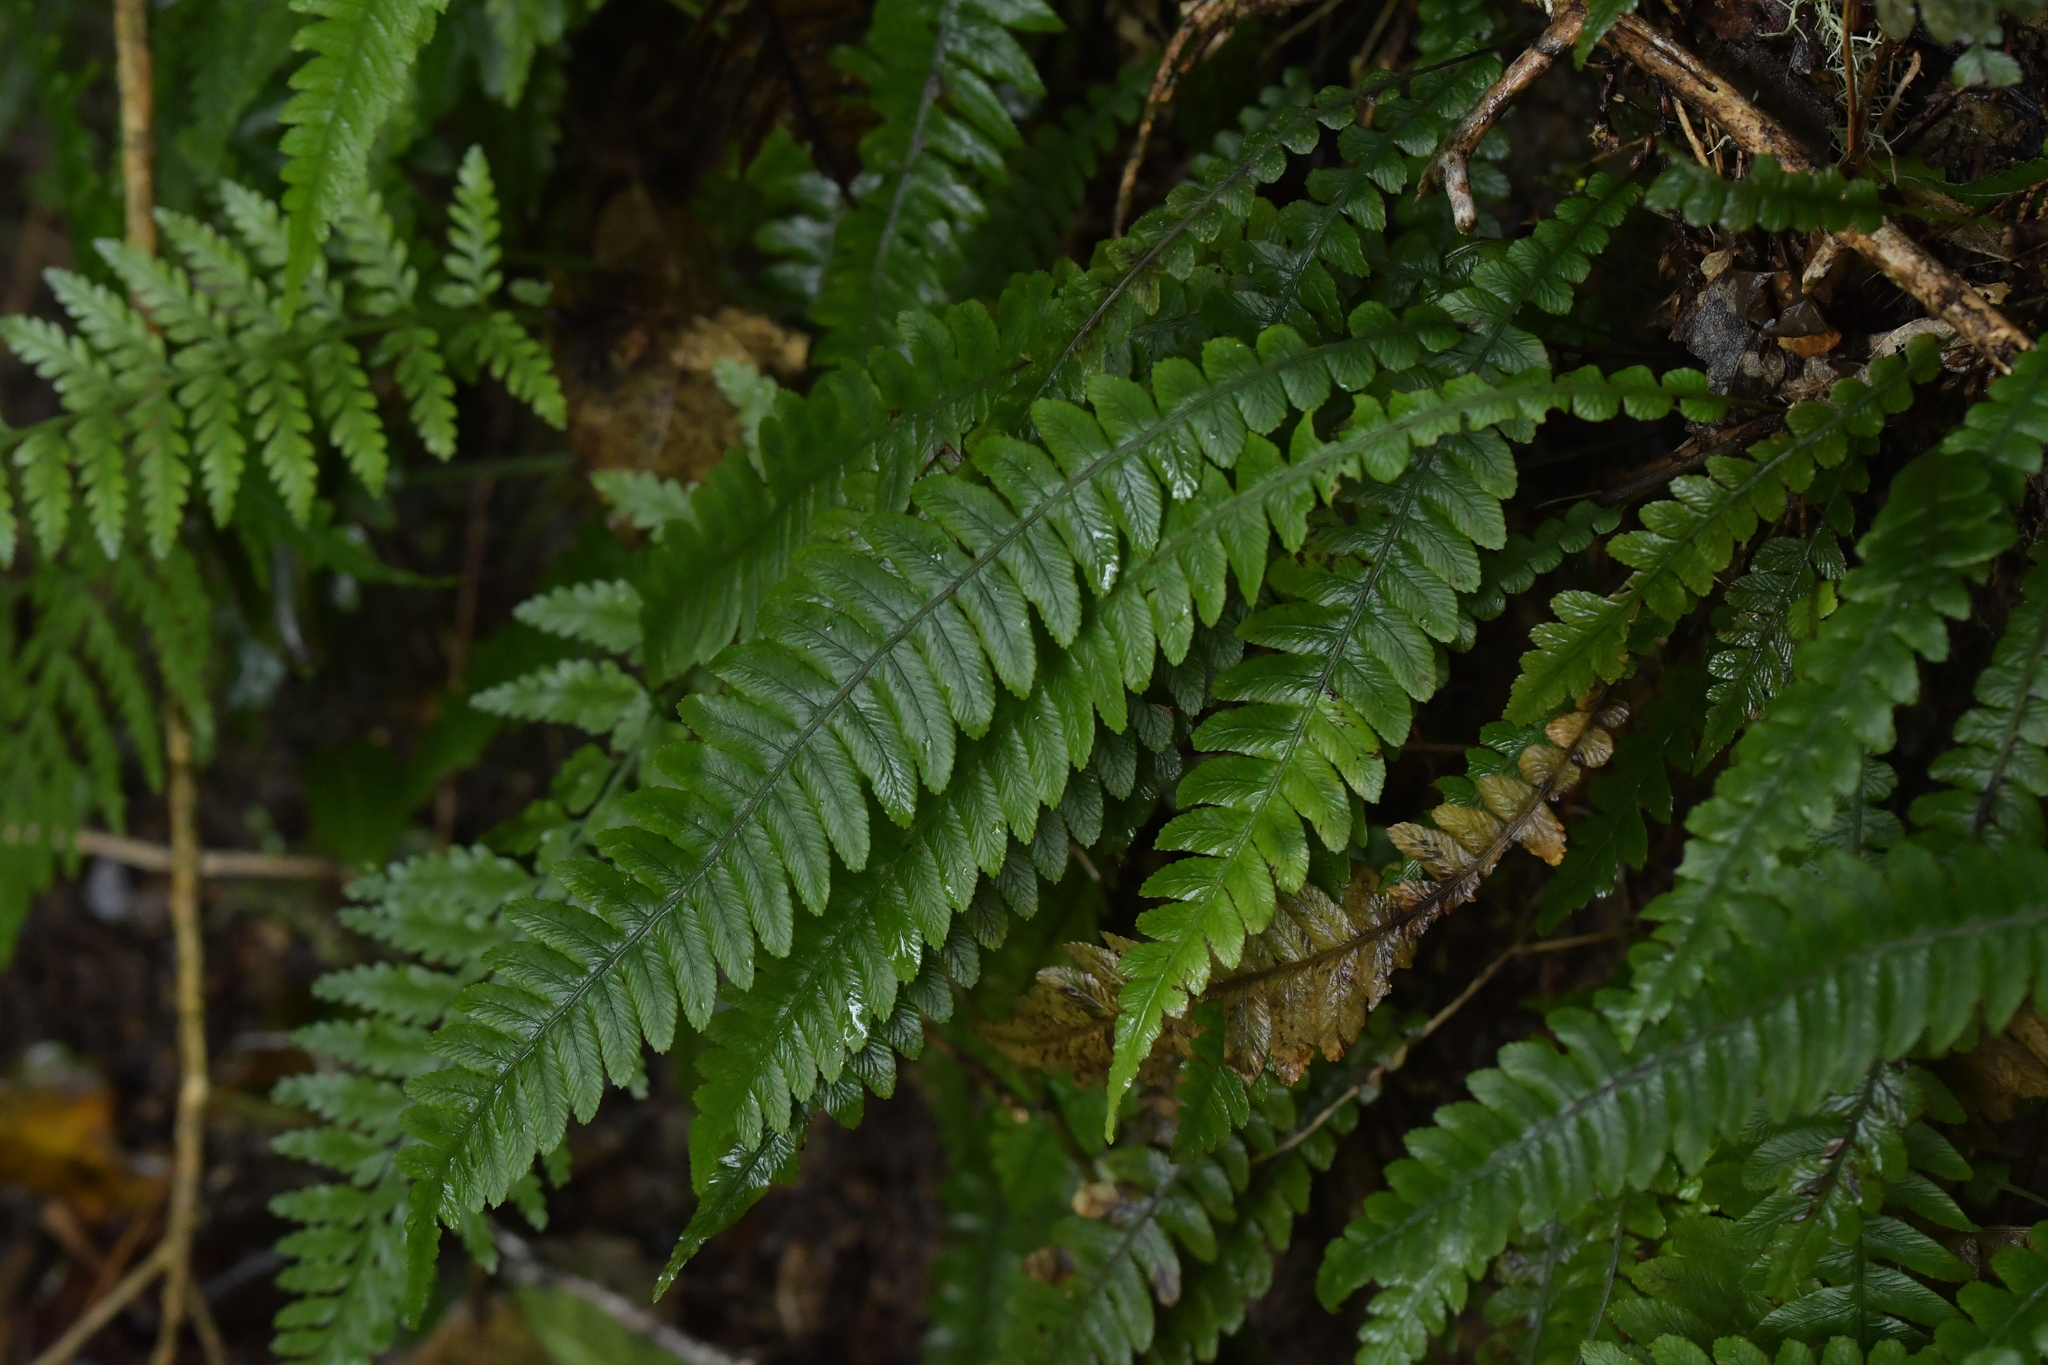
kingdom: Plantae
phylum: Tracheophyta
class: Polypodiopsida
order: Polypodiales
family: Blechnaceae
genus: Austroblechnum
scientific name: Austroblechnum lanceolatum
